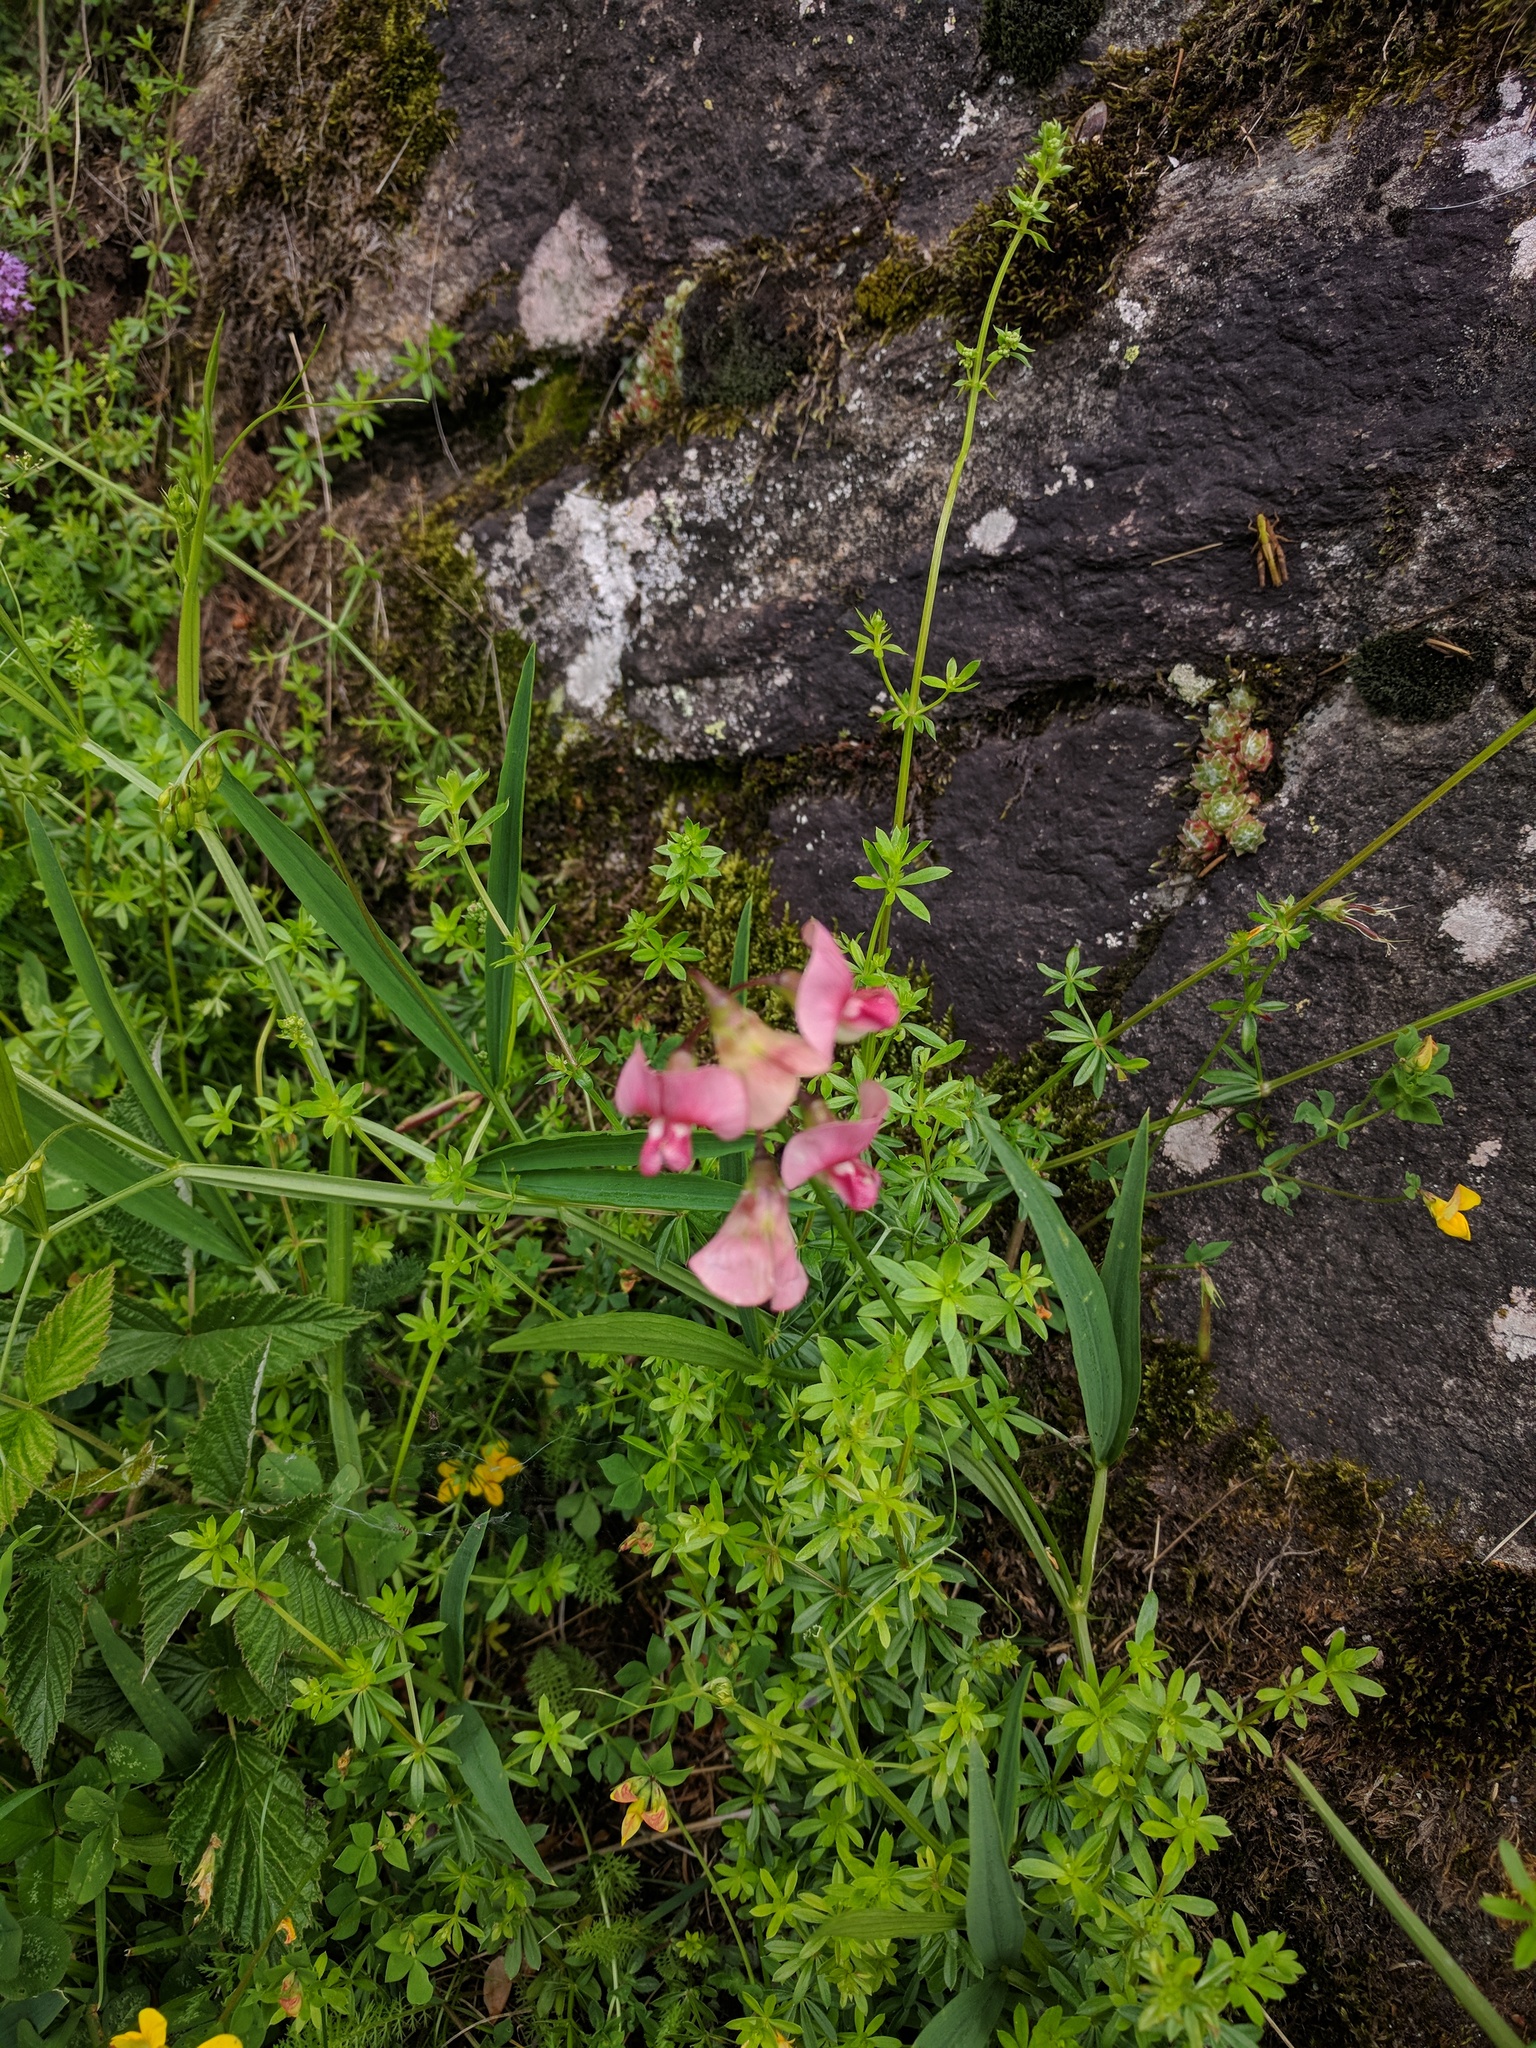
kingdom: Plantae
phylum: Tracheophyta
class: Magnoliopsida
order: Fabales
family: Fabaceae
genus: Lathyrus
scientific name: Lathyrus sylvestris
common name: Flat pea
